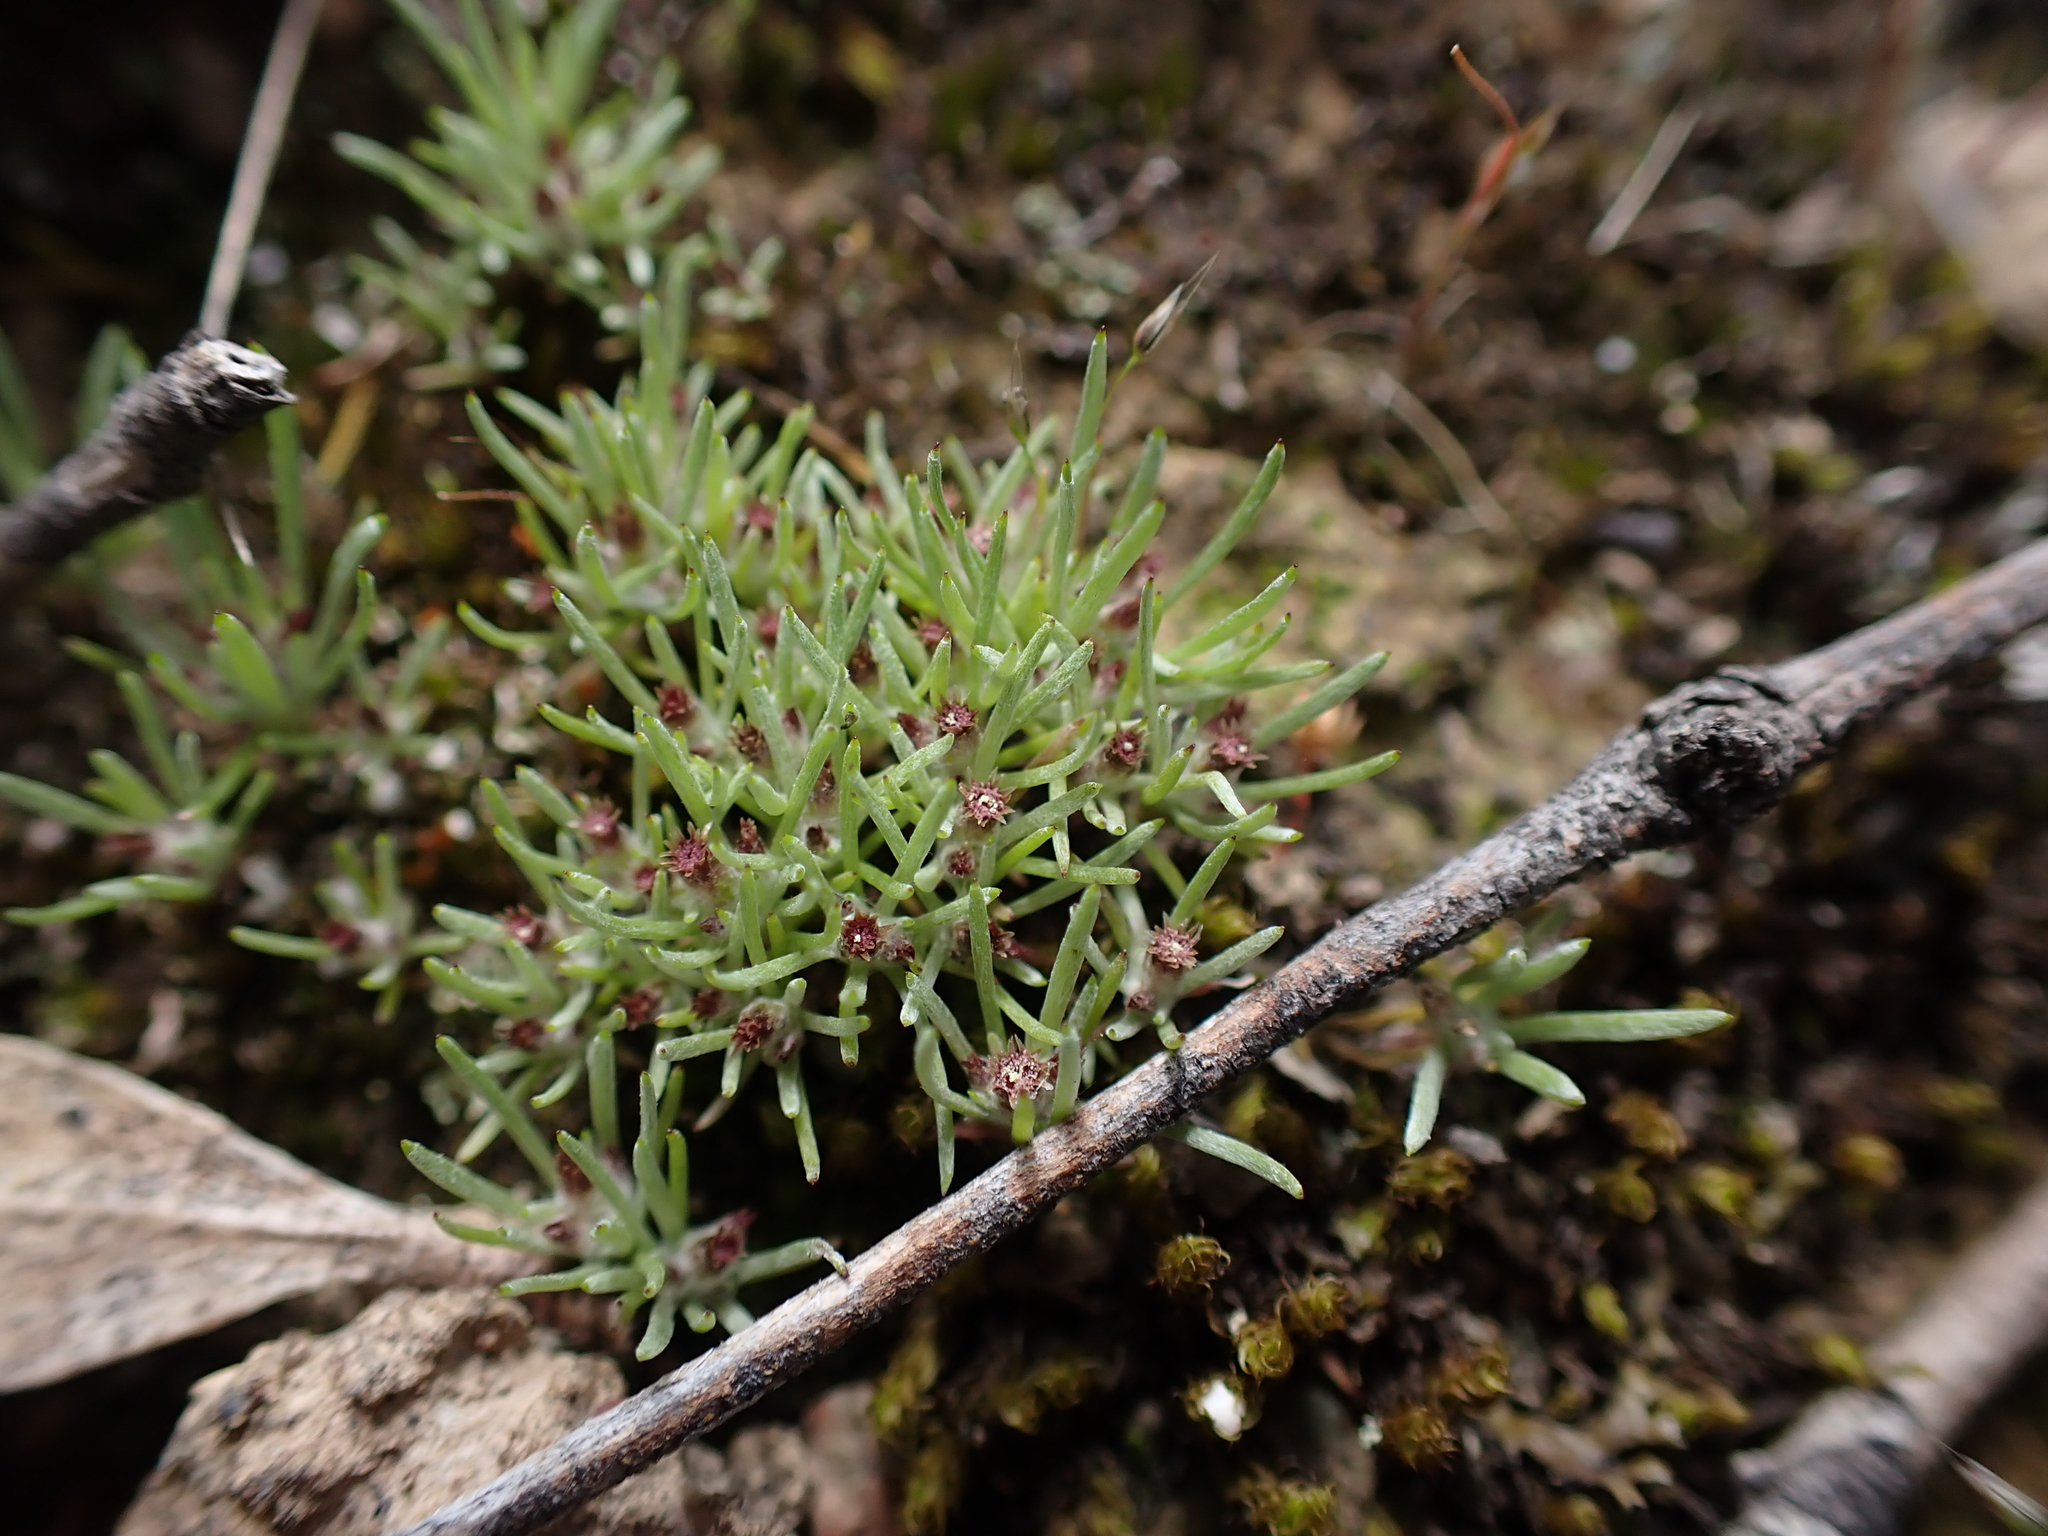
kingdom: Plantae
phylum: Tracheophyta
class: Magnoliopsida
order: Asterales
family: Asteraceae
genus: Gnaphalium
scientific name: Gnaphalium indutum
